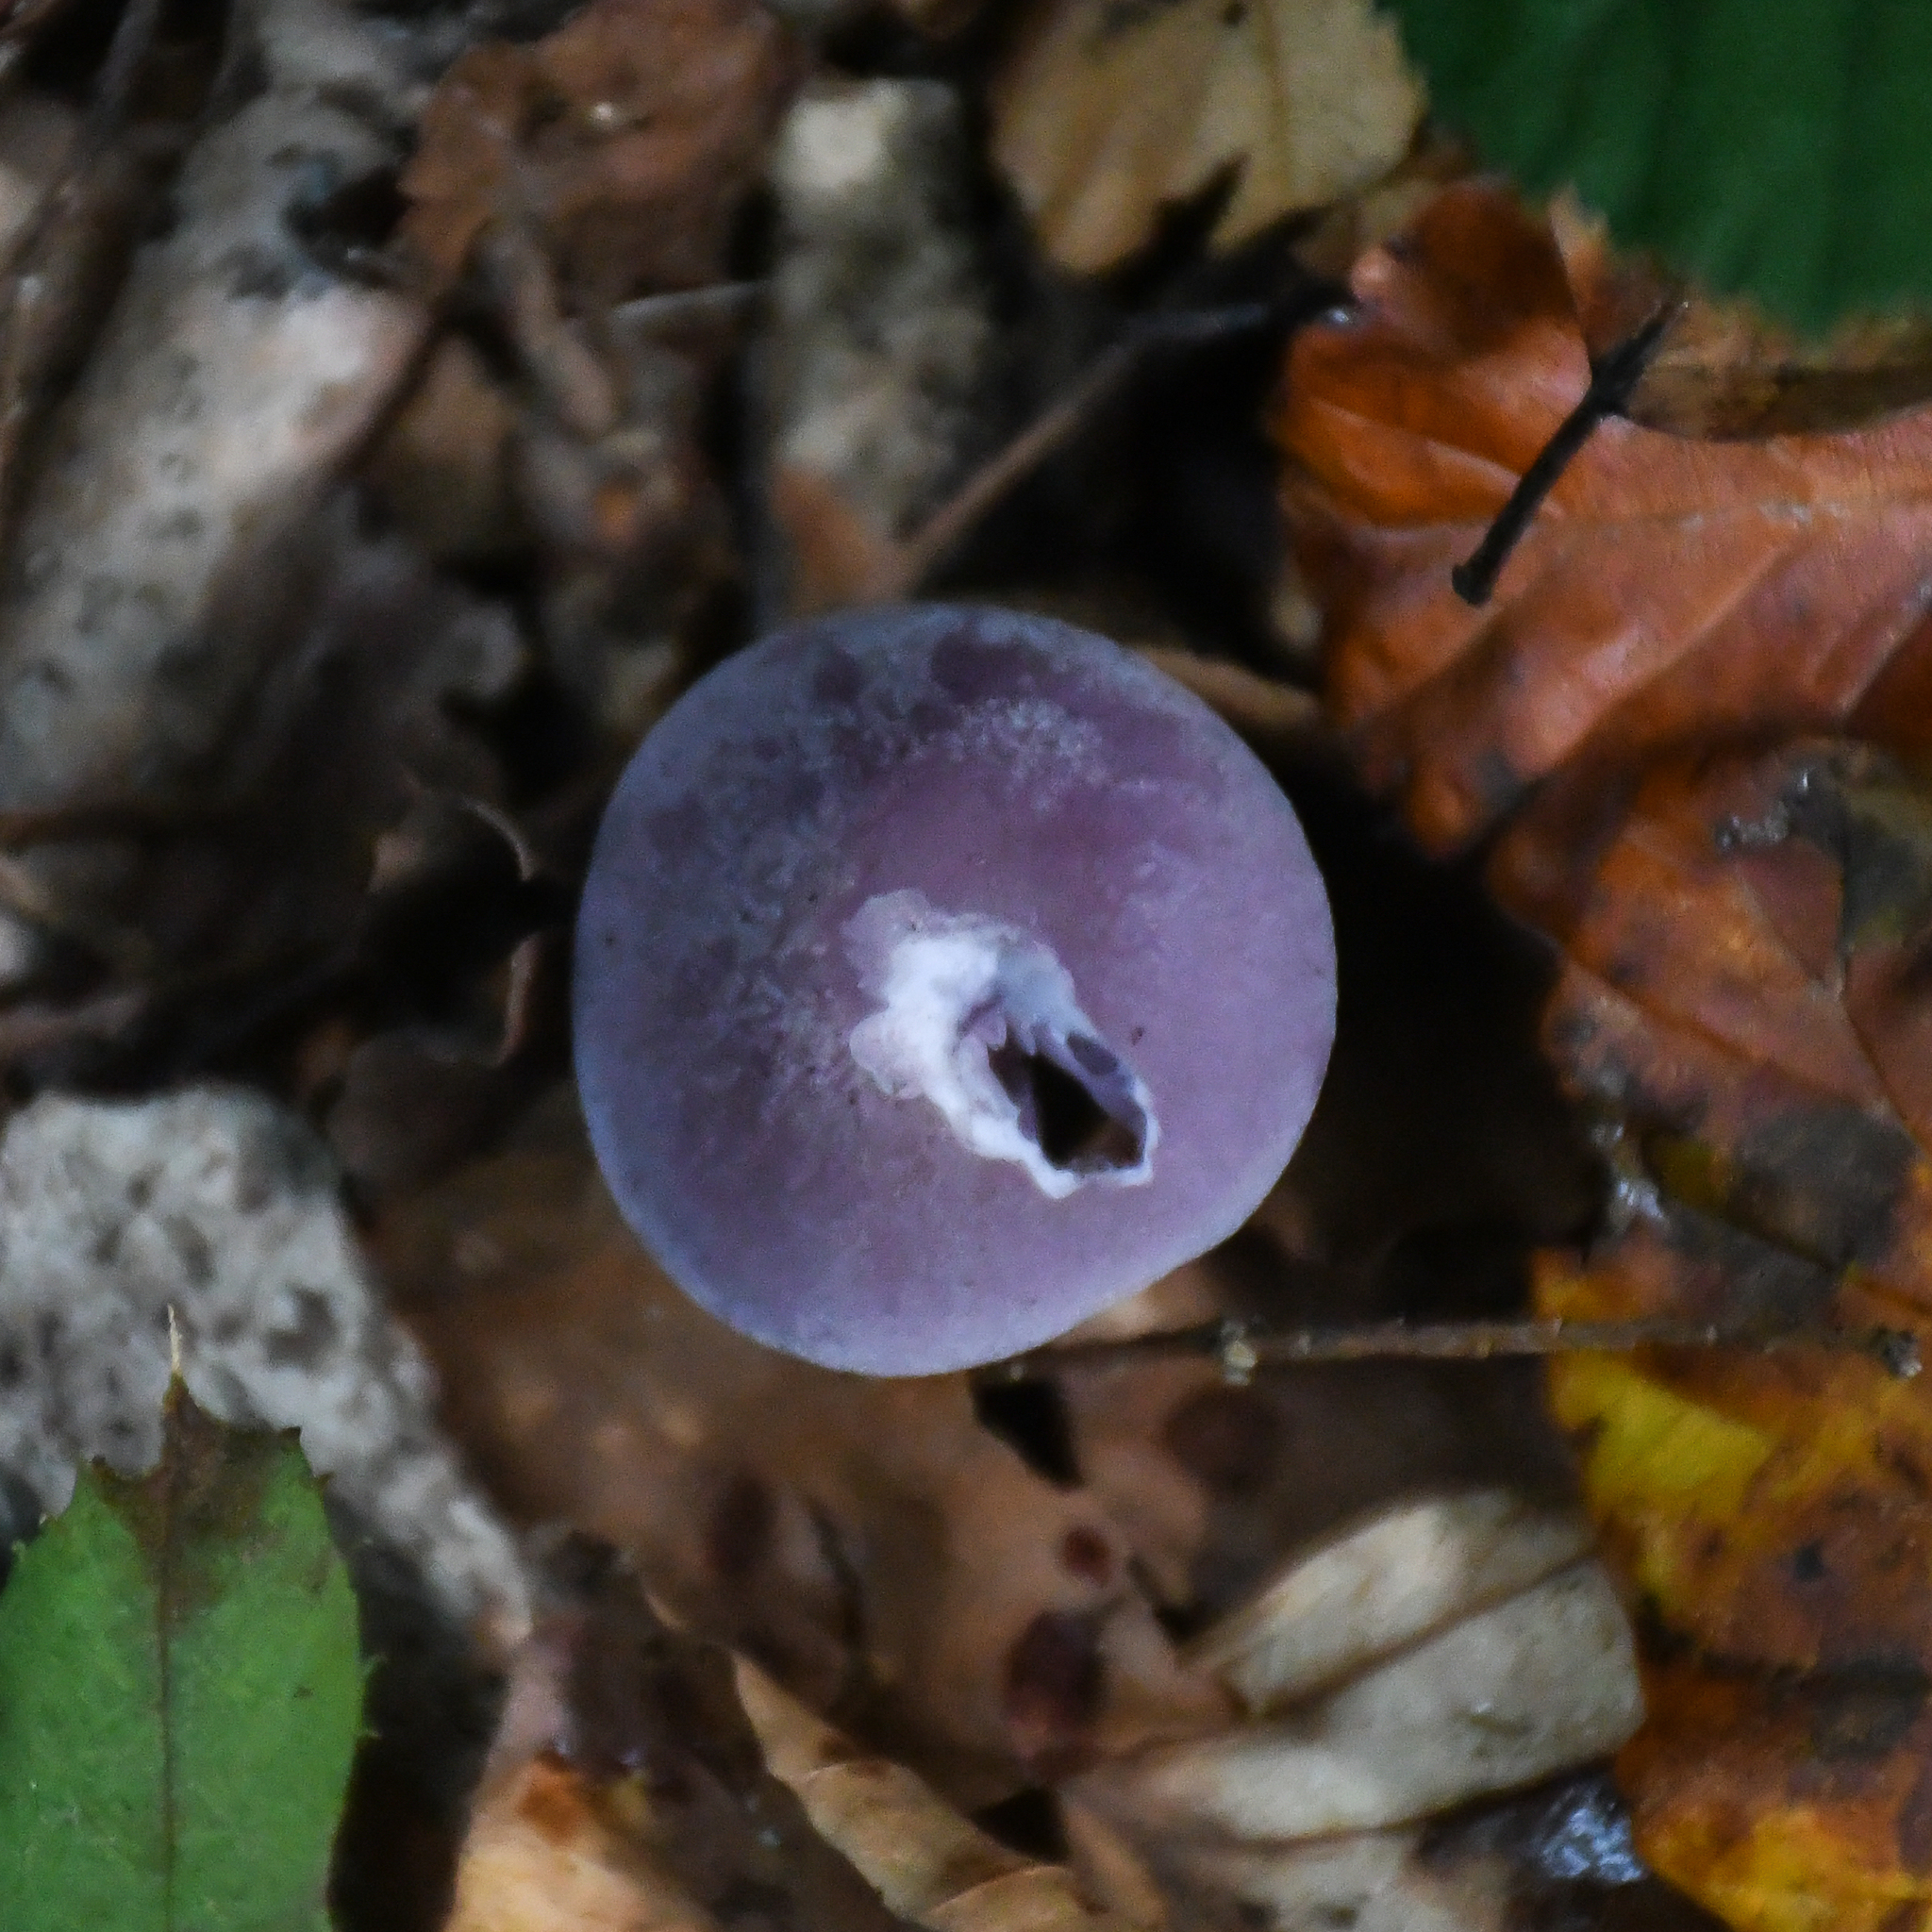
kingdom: Fungi
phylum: Basidiomycota
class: Agaricomycetes
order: Agaricales
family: Hydnangiaceae
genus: Laccaria
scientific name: Laccaria amethystina
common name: Amethyst deceiver
